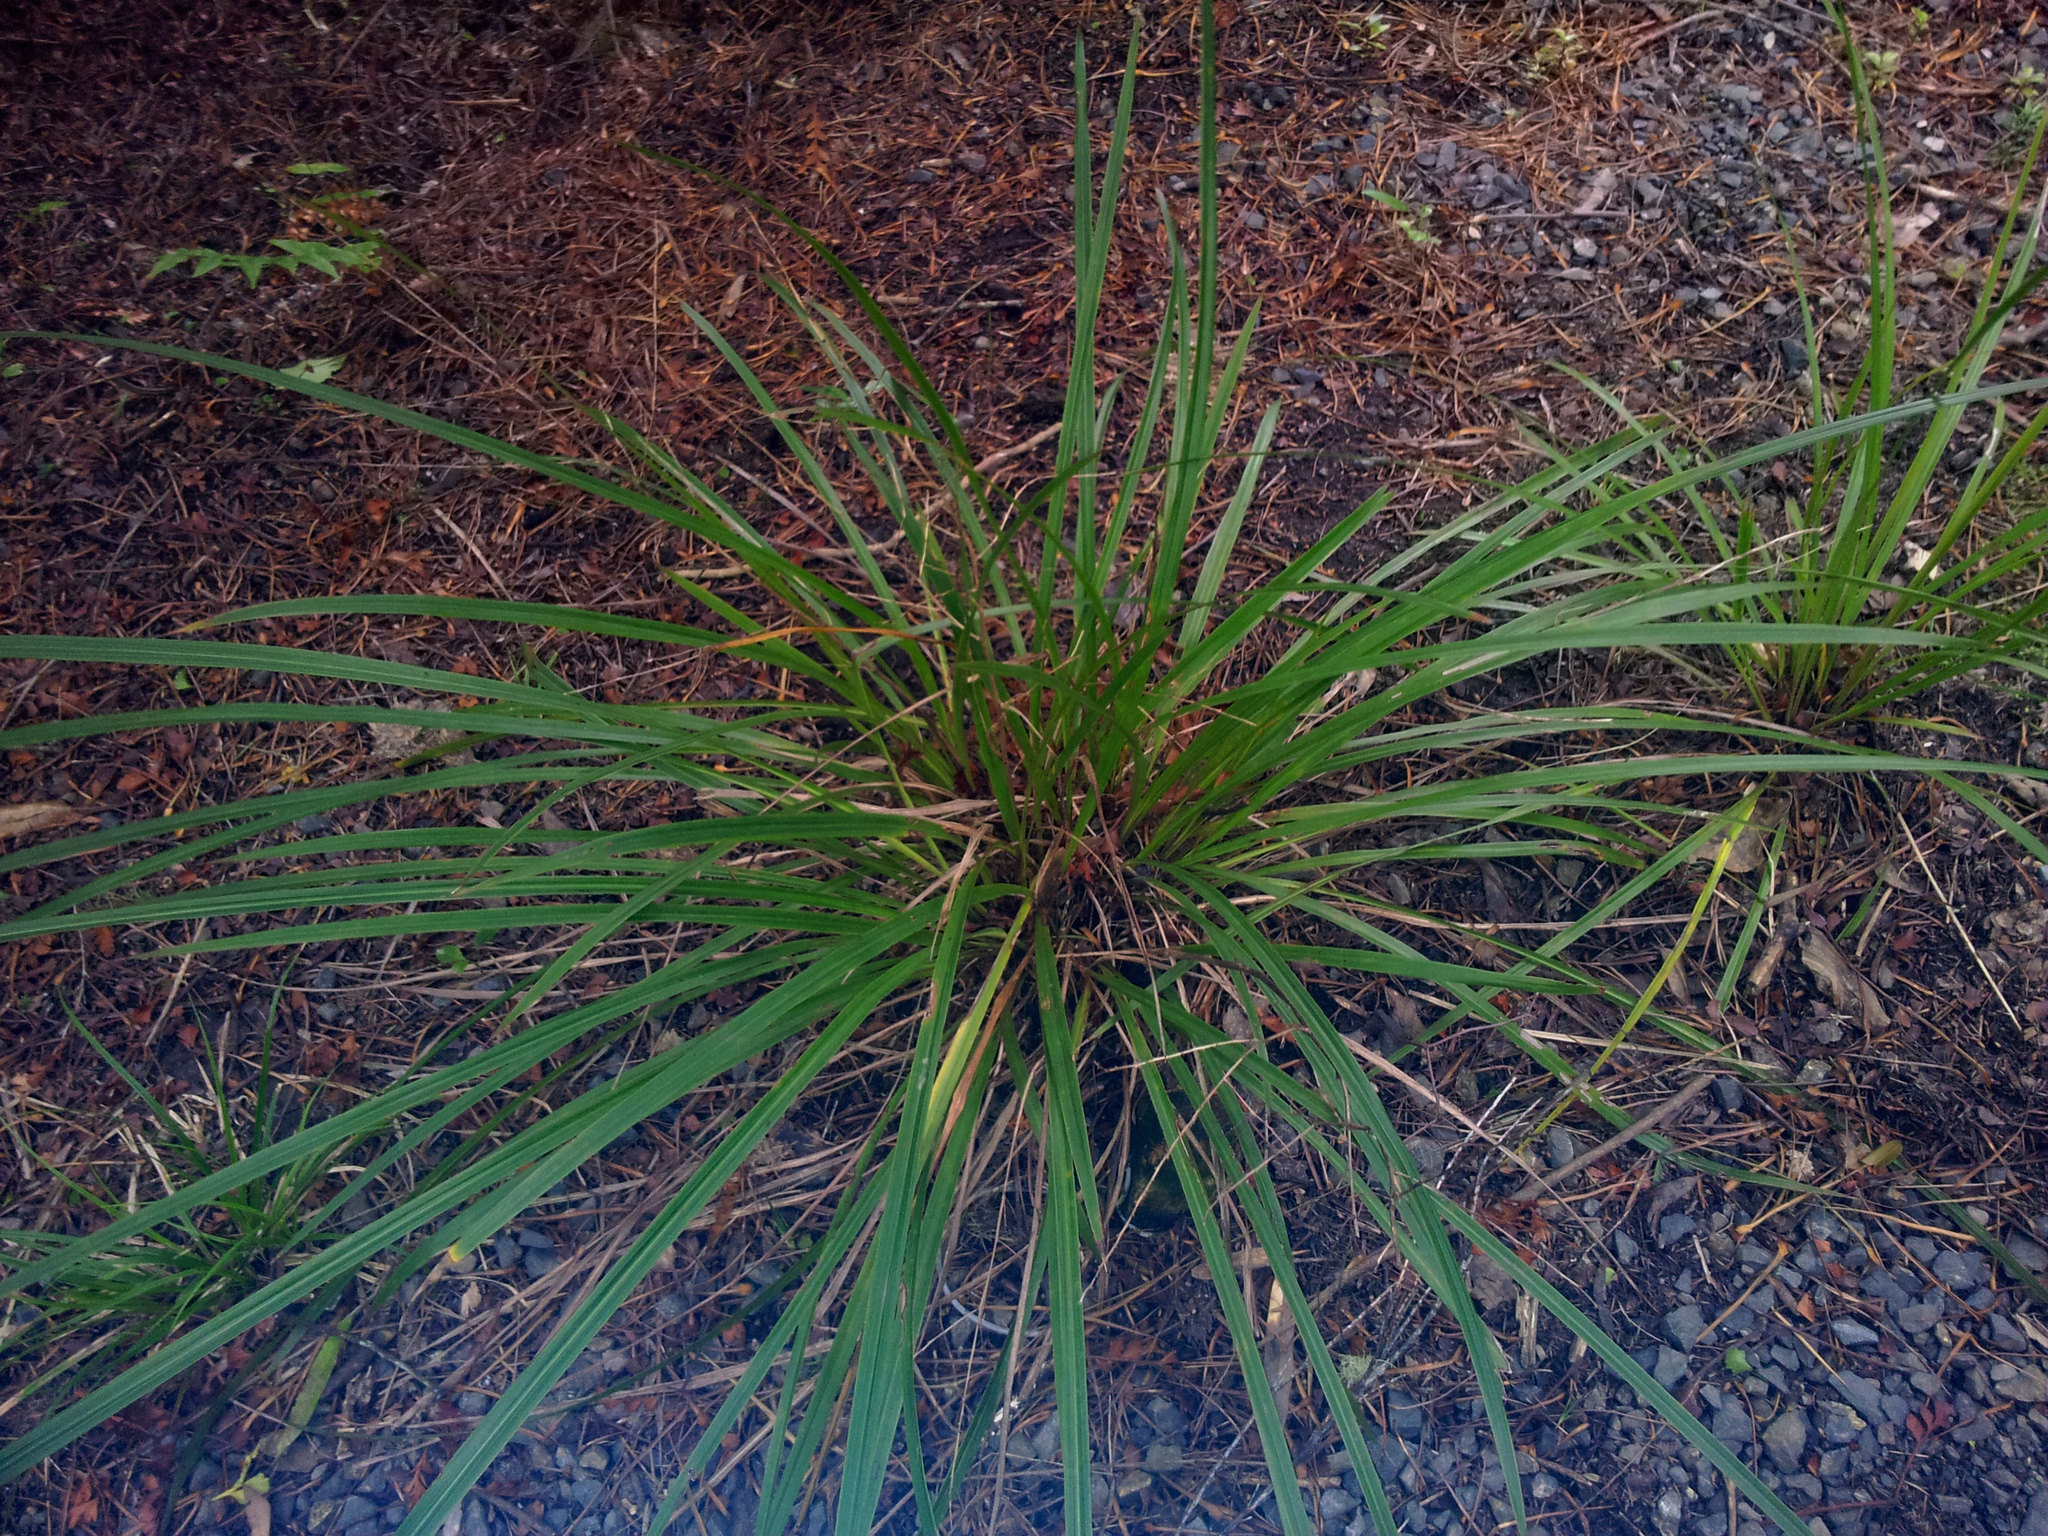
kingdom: Plantae
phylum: Tracheophyta
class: Liliopsida
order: Asparagales
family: Asparagaceae
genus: Cordyline
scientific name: Cordyline pumilio
